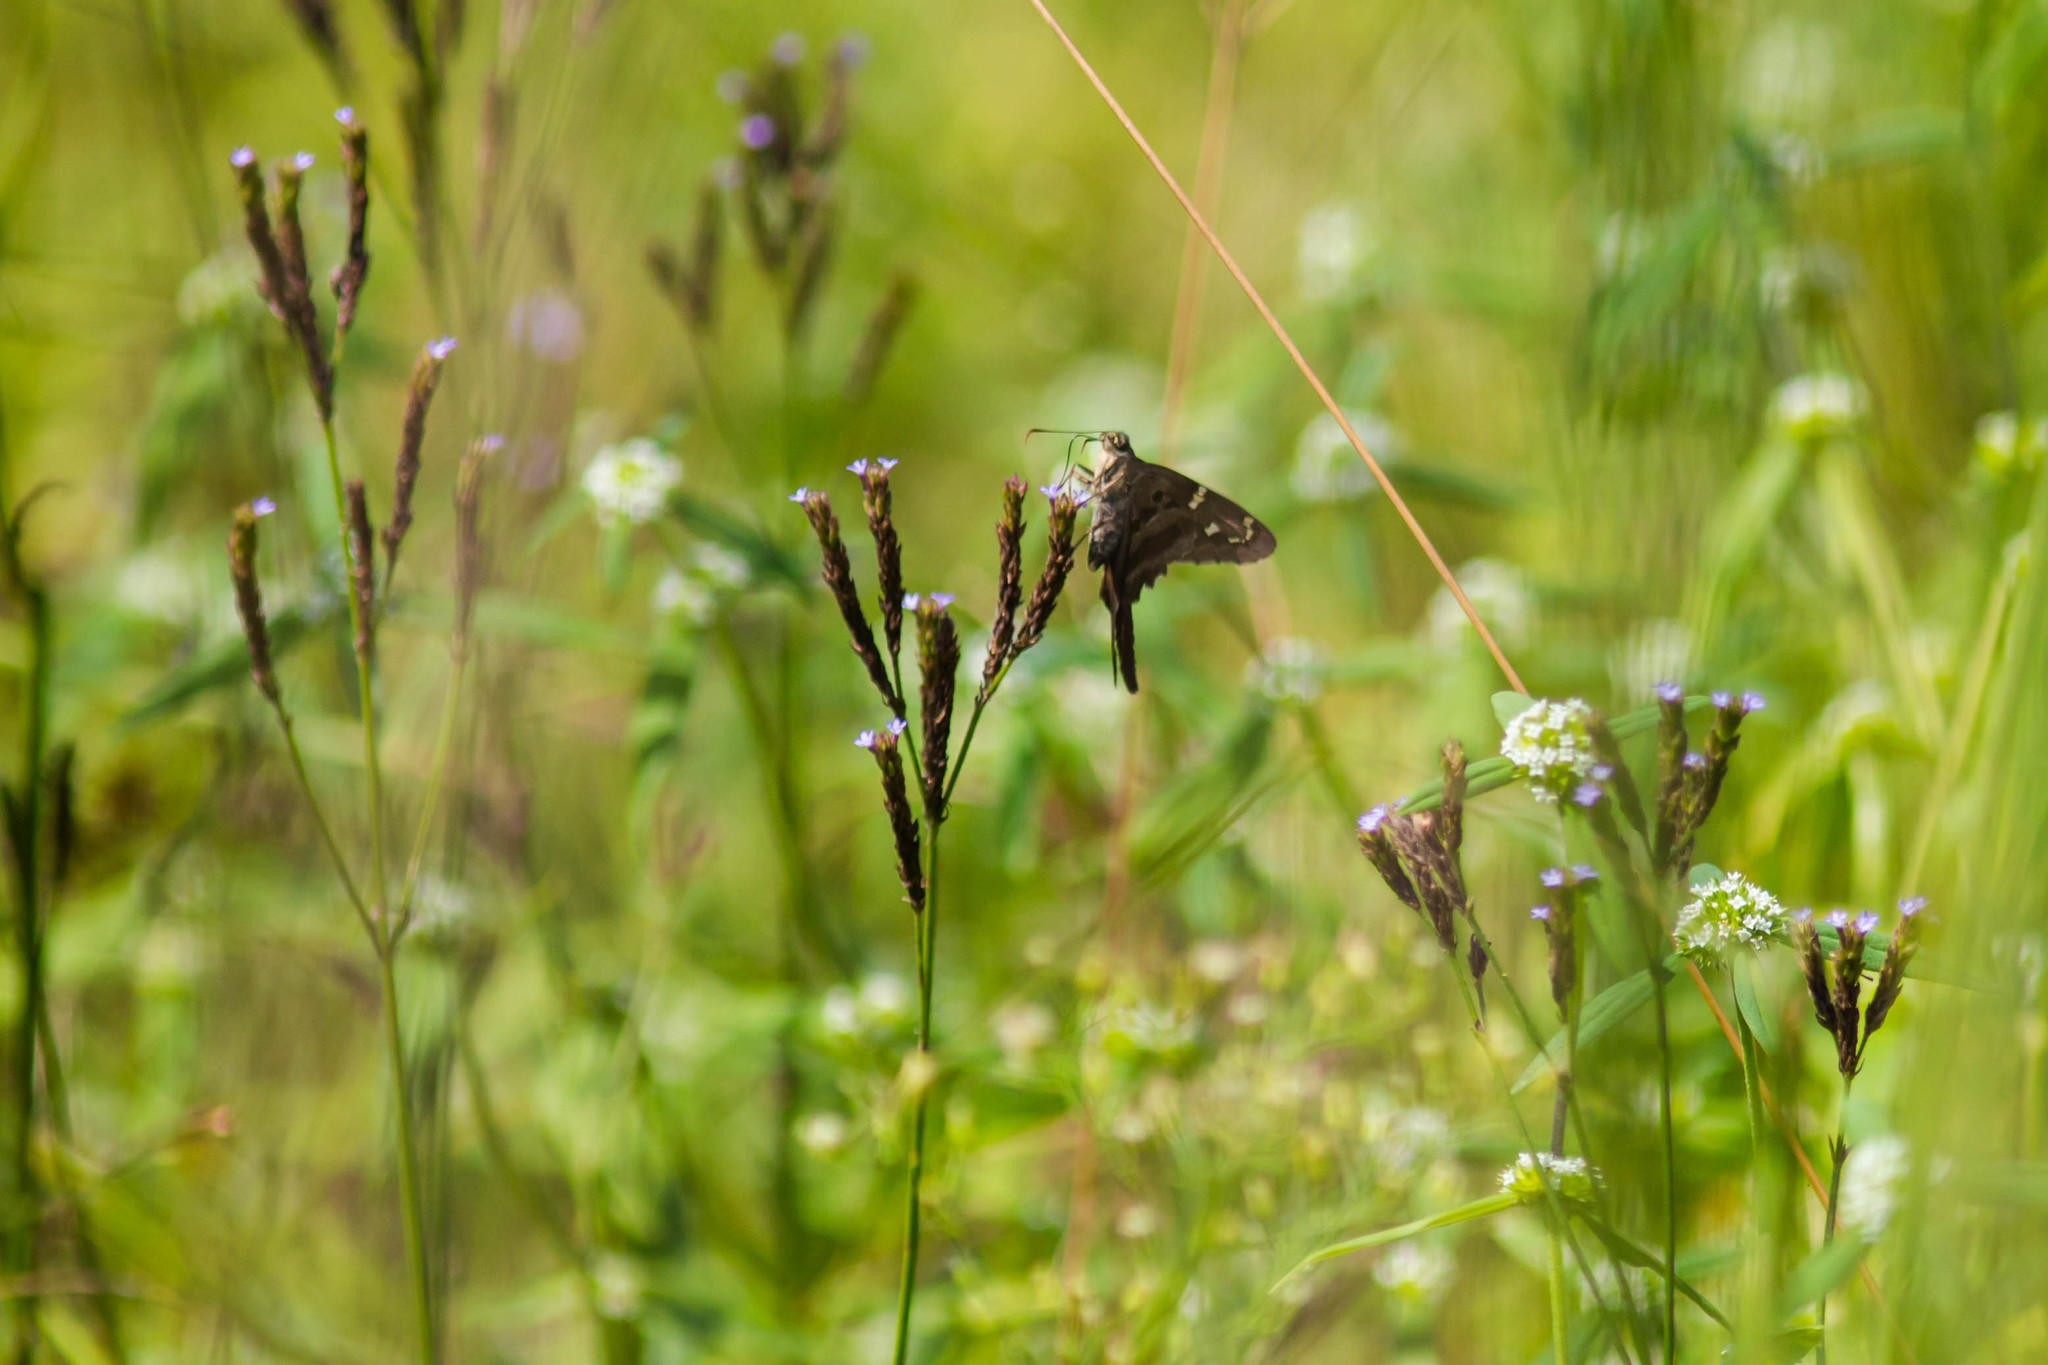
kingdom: Animalia
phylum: Arthropoda
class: Insecta
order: Lepidoptera
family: Hesperiidae
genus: Urbanus
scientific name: Urbanus proteus
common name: Long-tailed skipper
